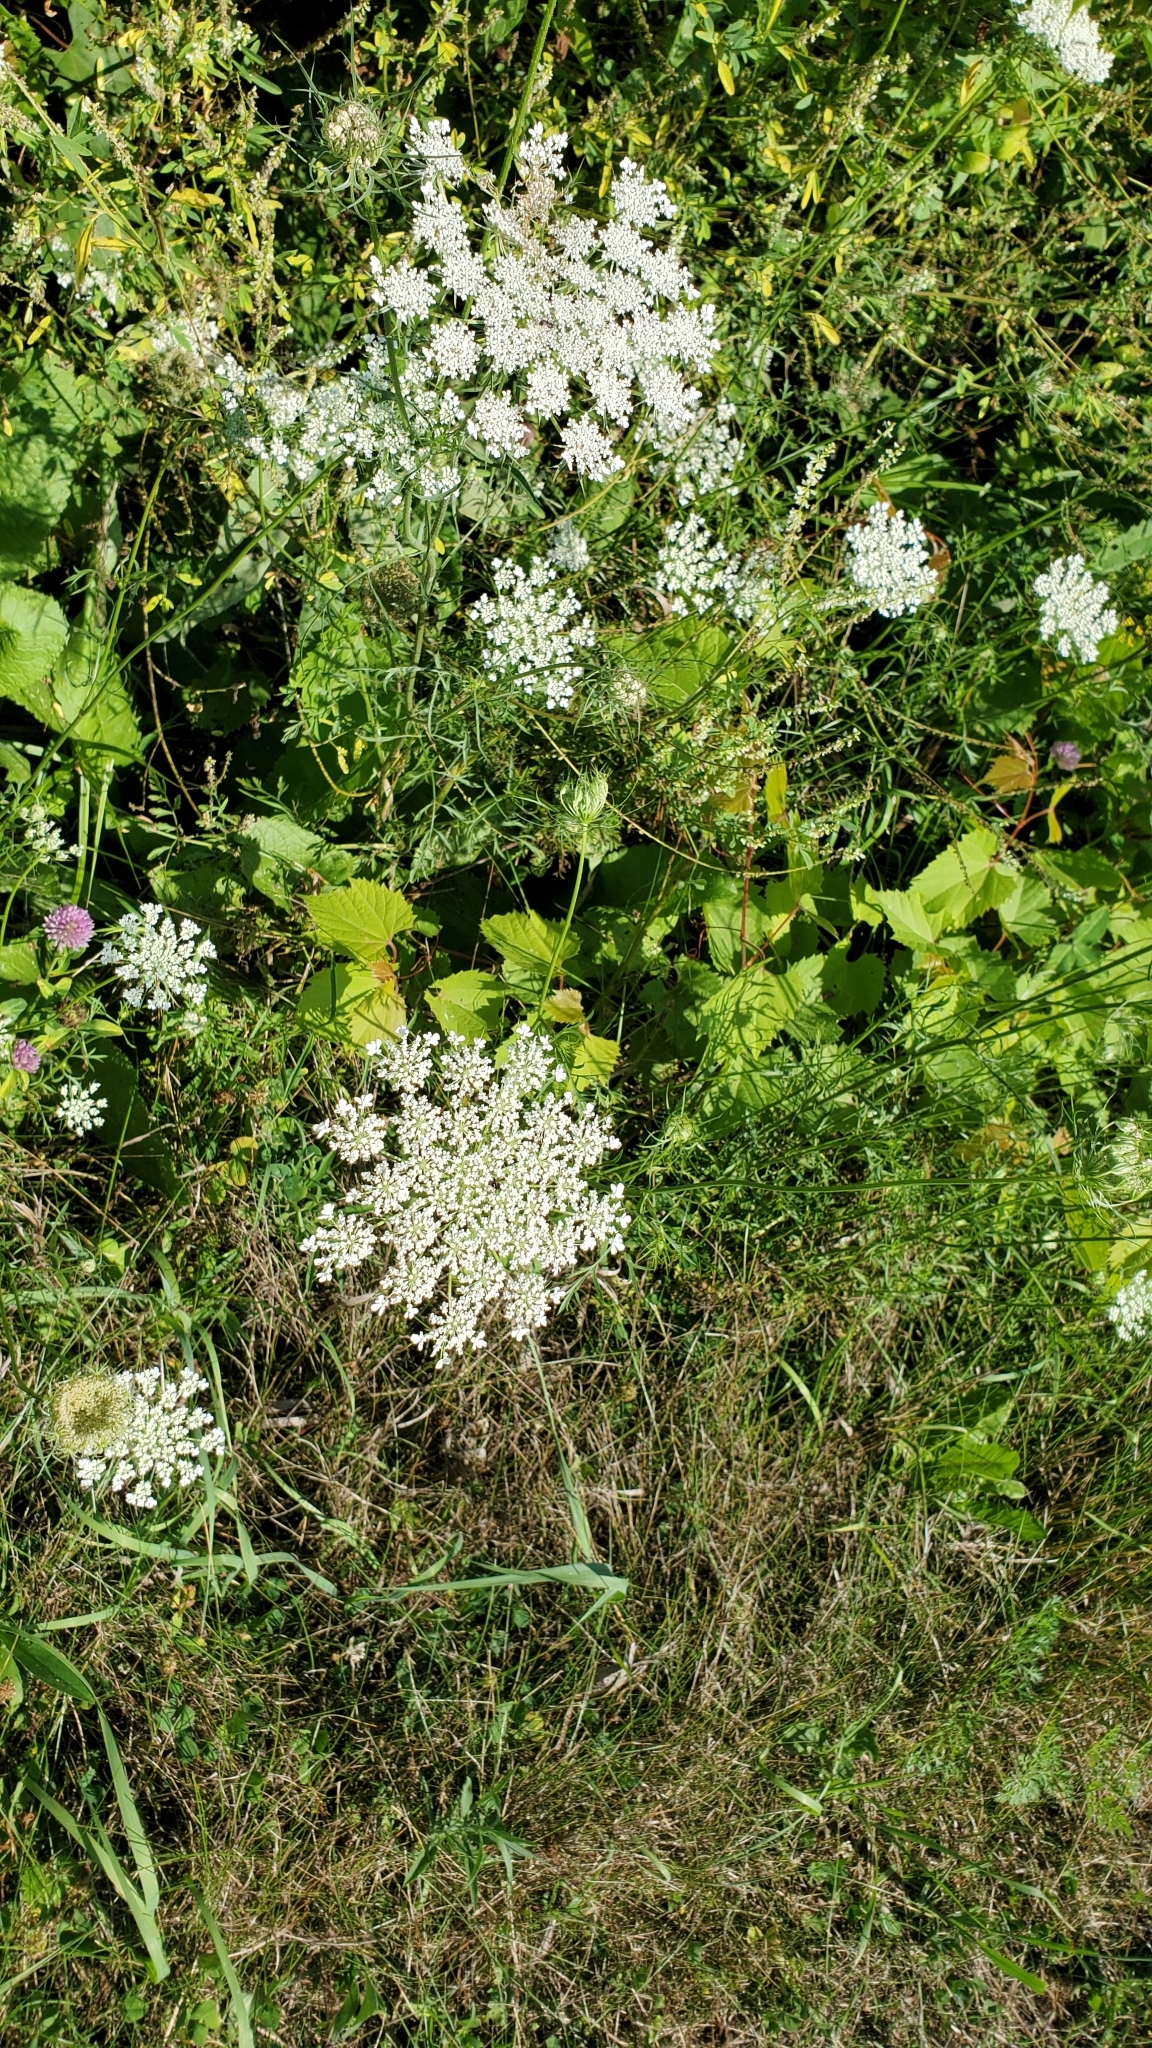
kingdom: Plantae
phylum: Tracheophyta
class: Magnoliopsida
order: Apiales
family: Apiaceae
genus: Daucus
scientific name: Daucus carota
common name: Wild carrot
